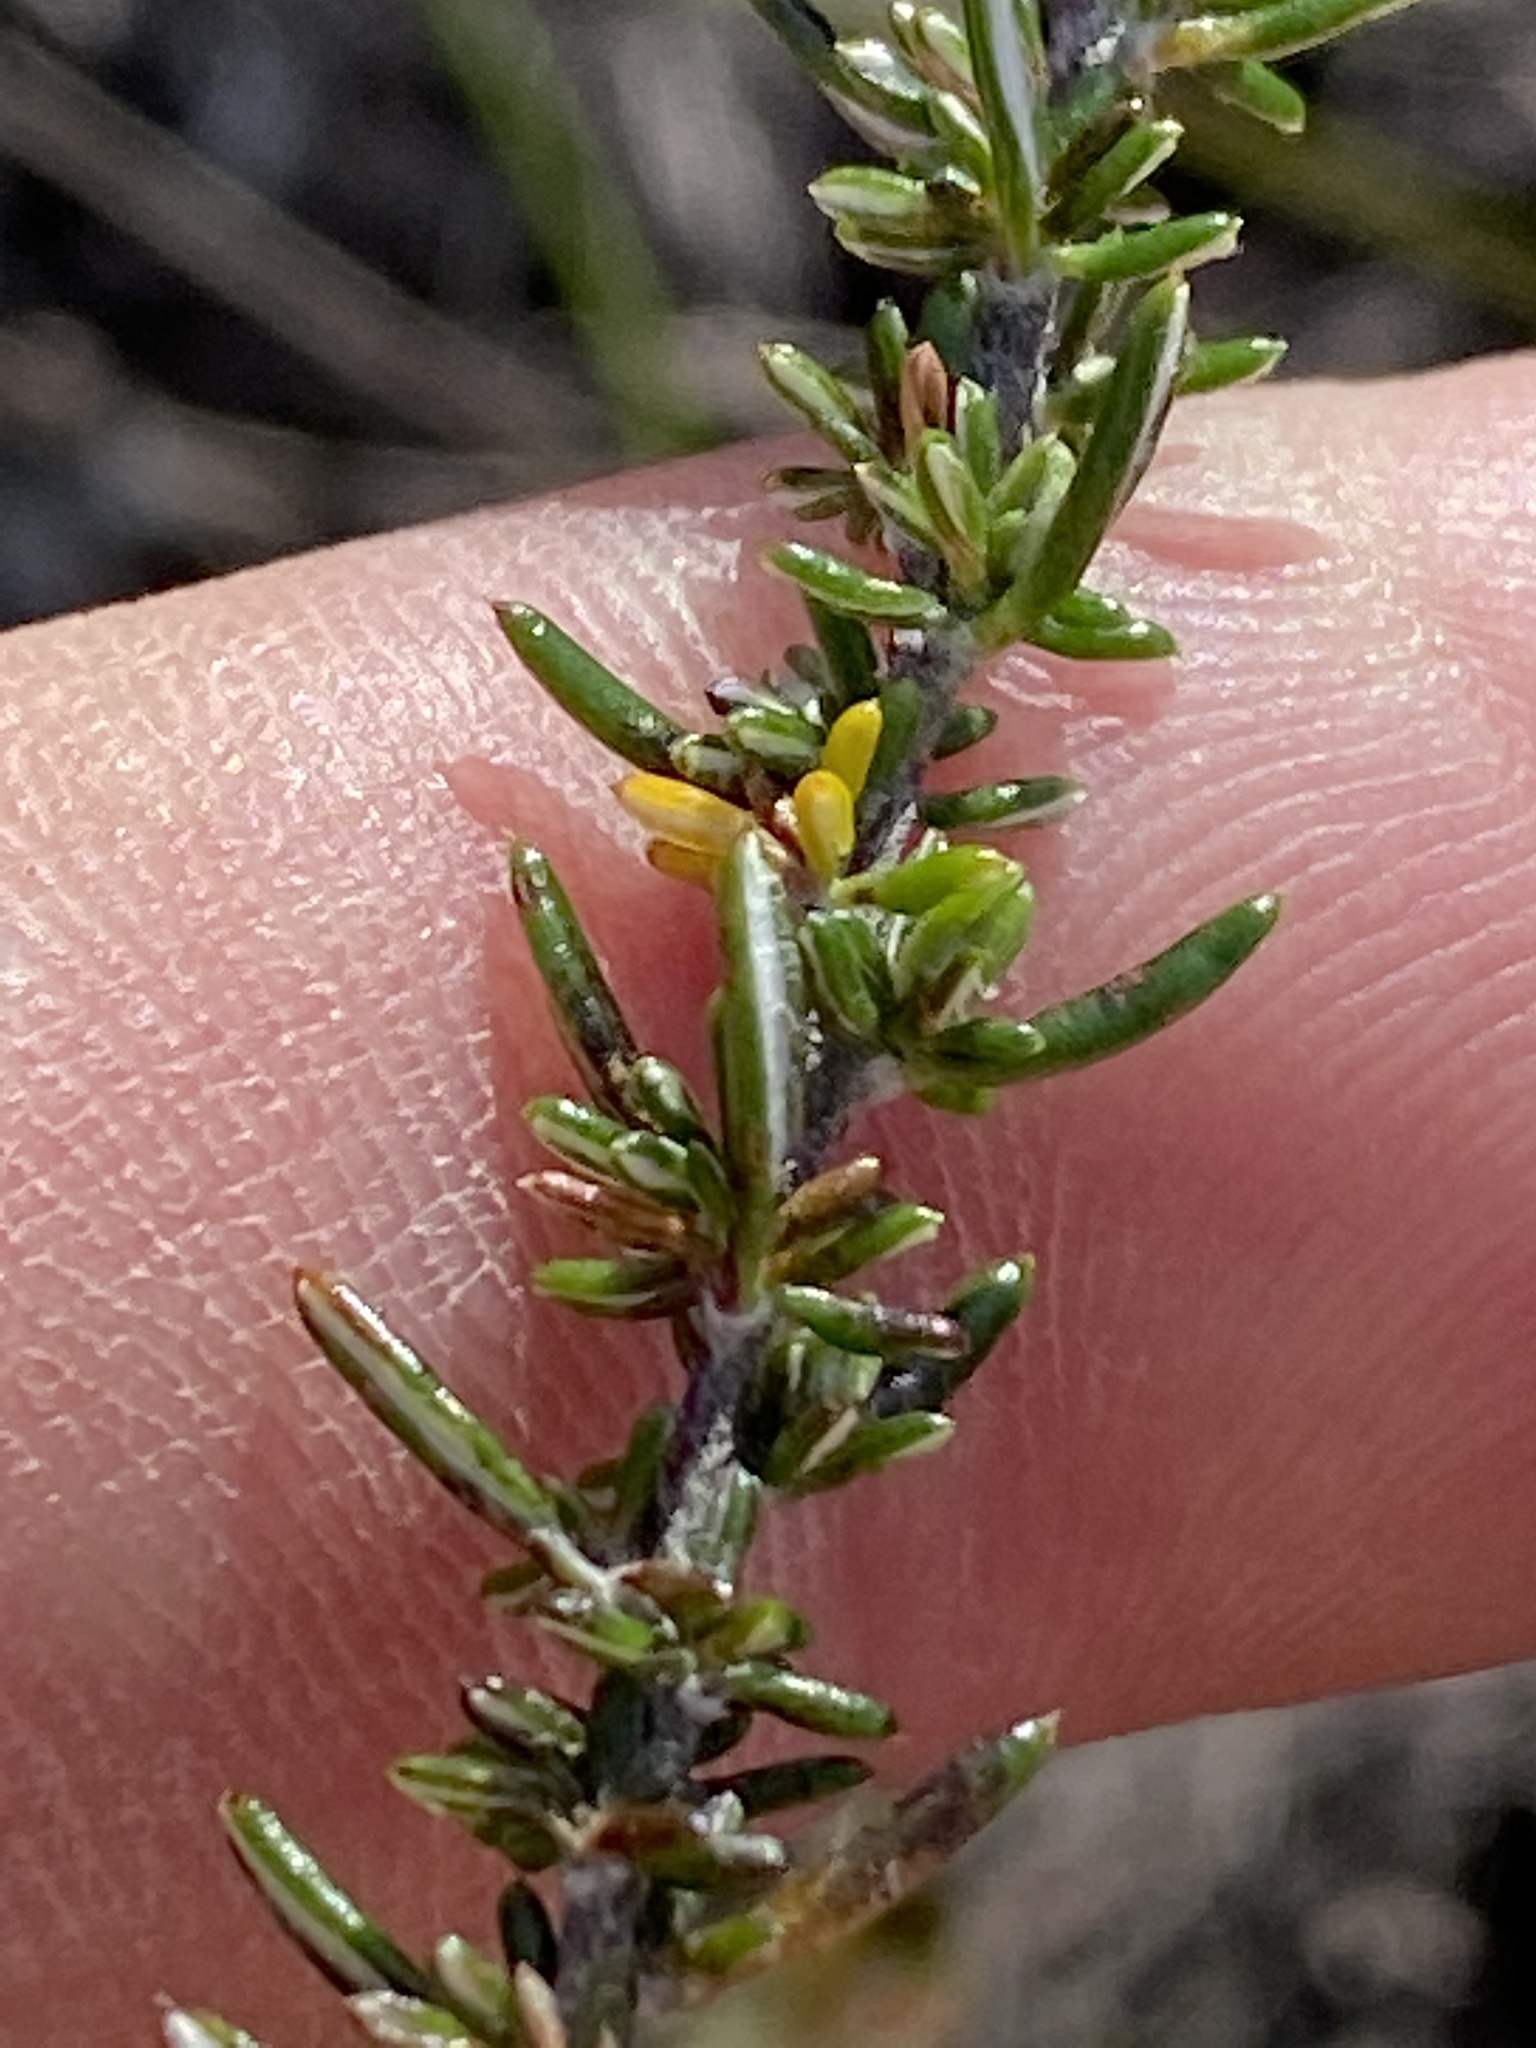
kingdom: Plantae
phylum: Tracheophyta
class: Magnoliopsida
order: Asterales
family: Asteraceae
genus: Metalasia
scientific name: Metalasia densa
